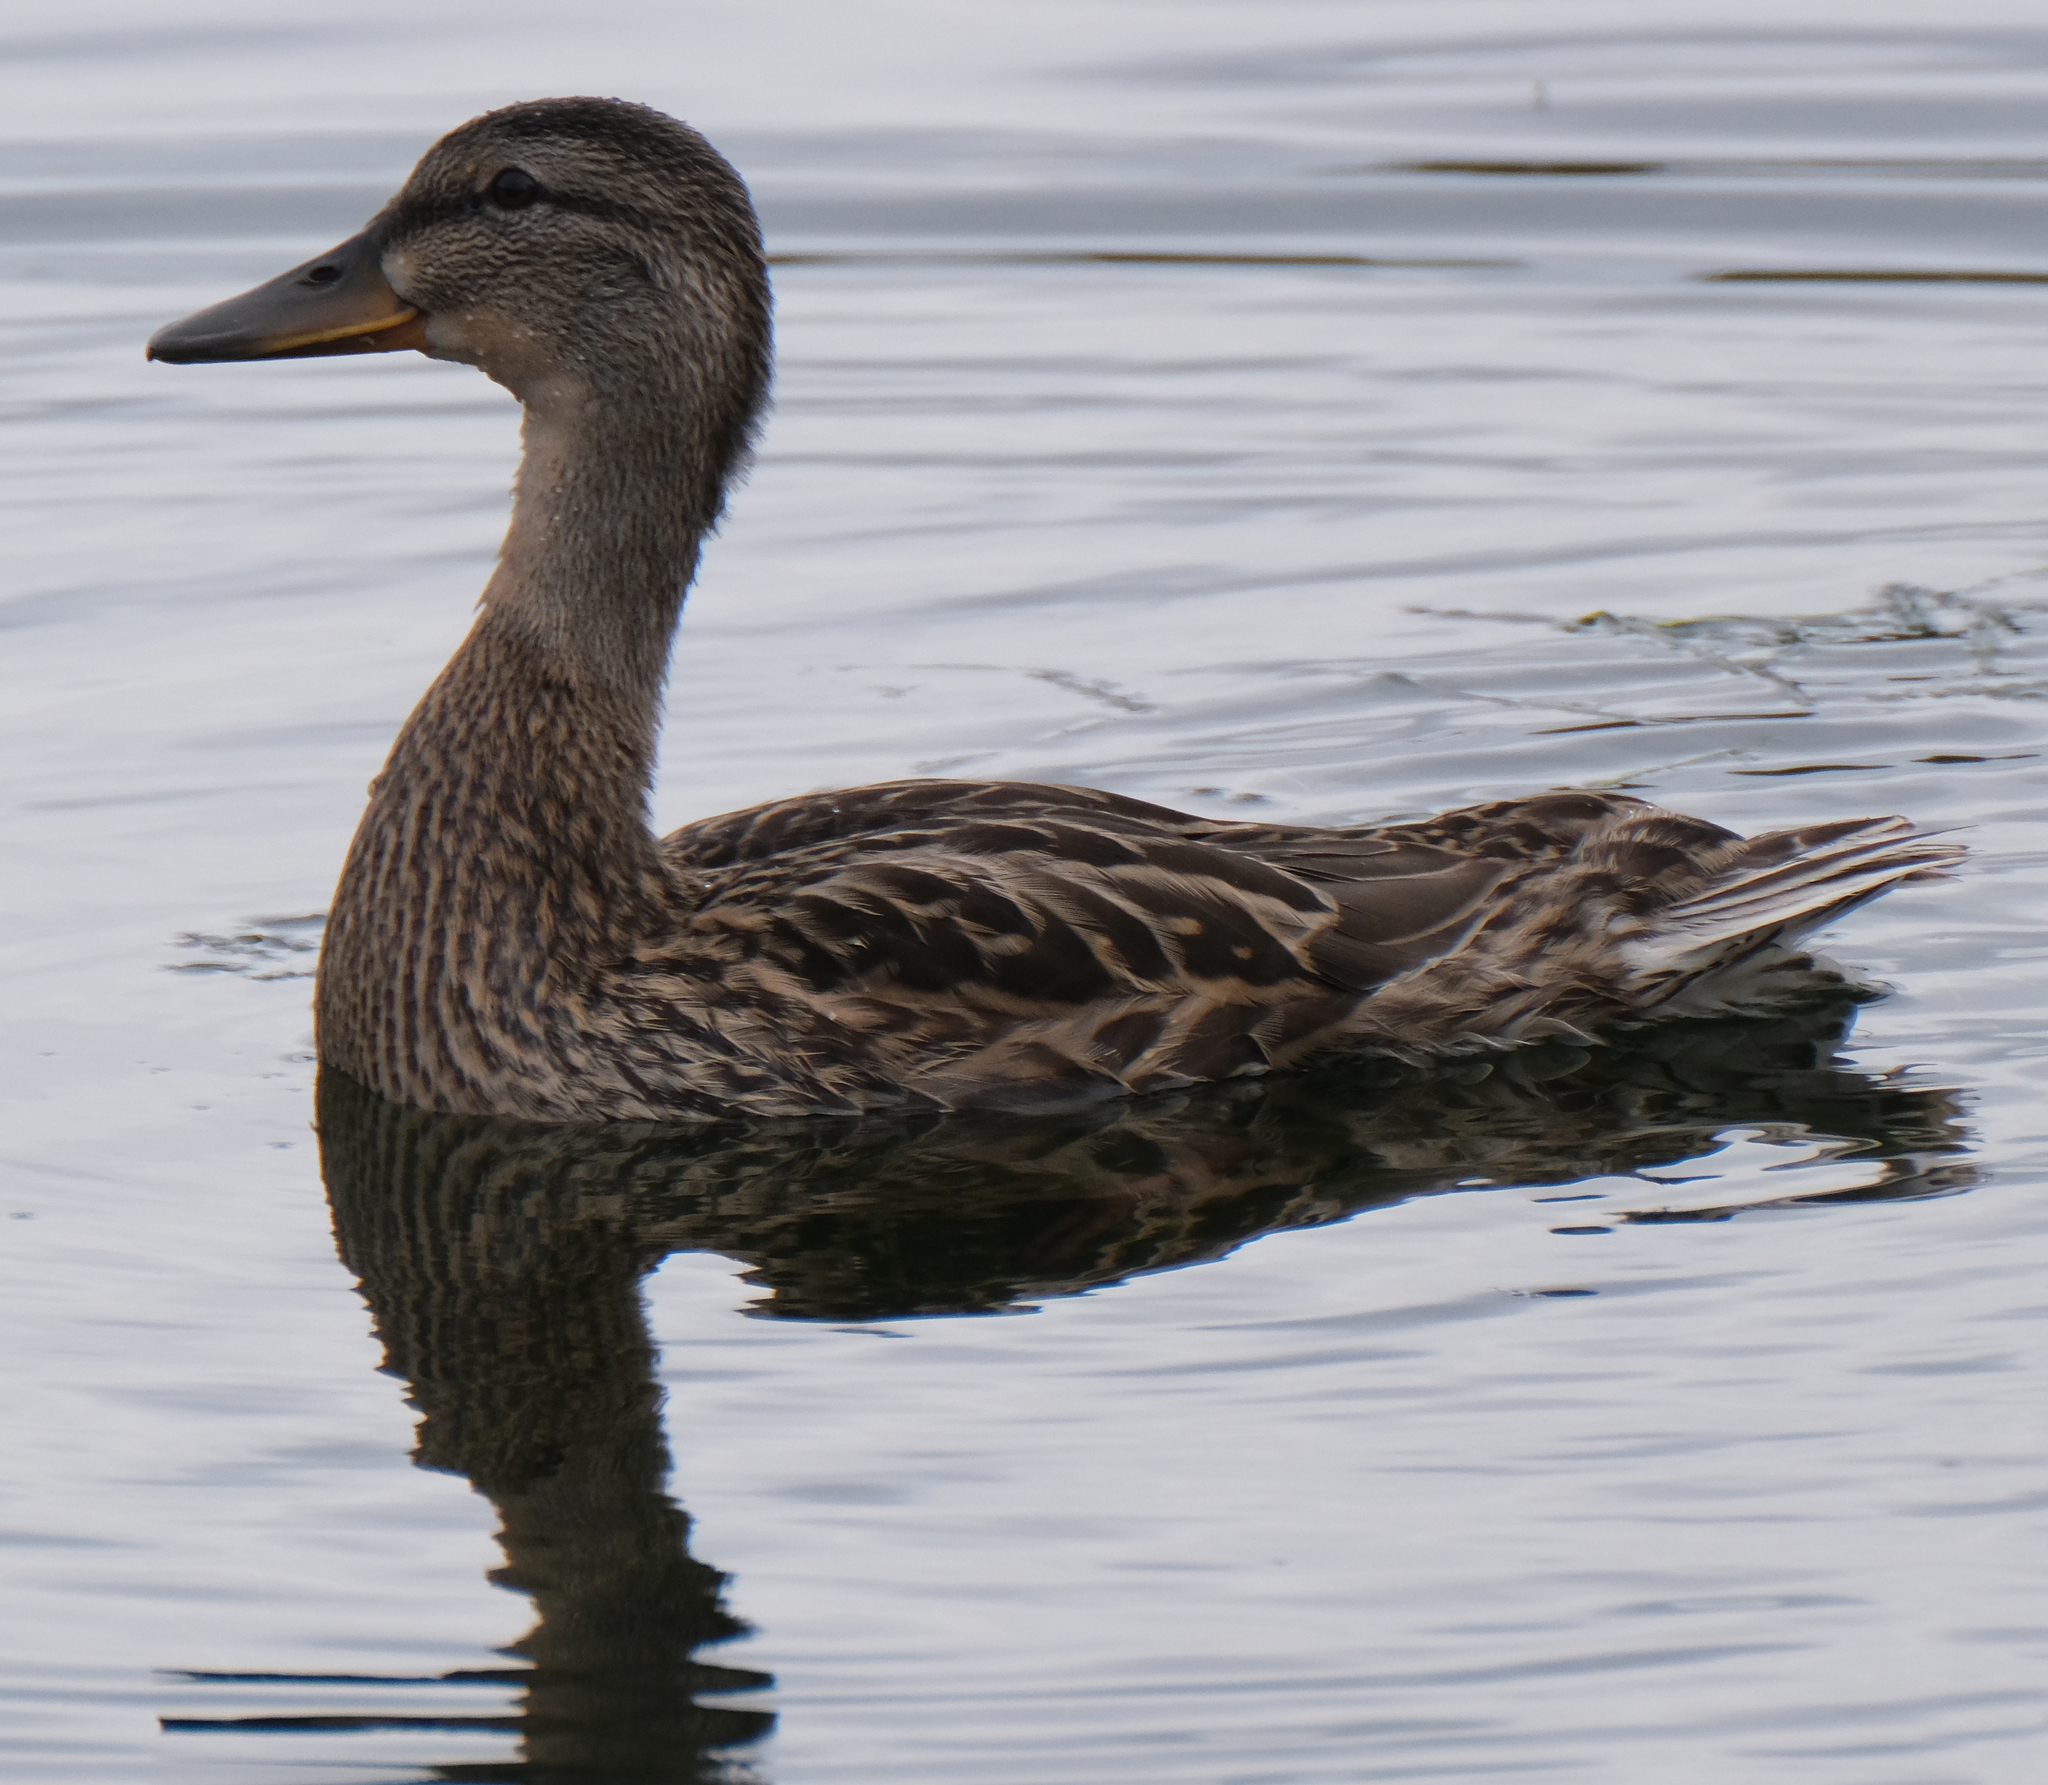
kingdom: Animalia
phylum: Chordata
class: Aves
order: Anseriformes
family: Anatidae
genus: Anas
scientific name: Anas platyrhynchos
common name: Mallard
